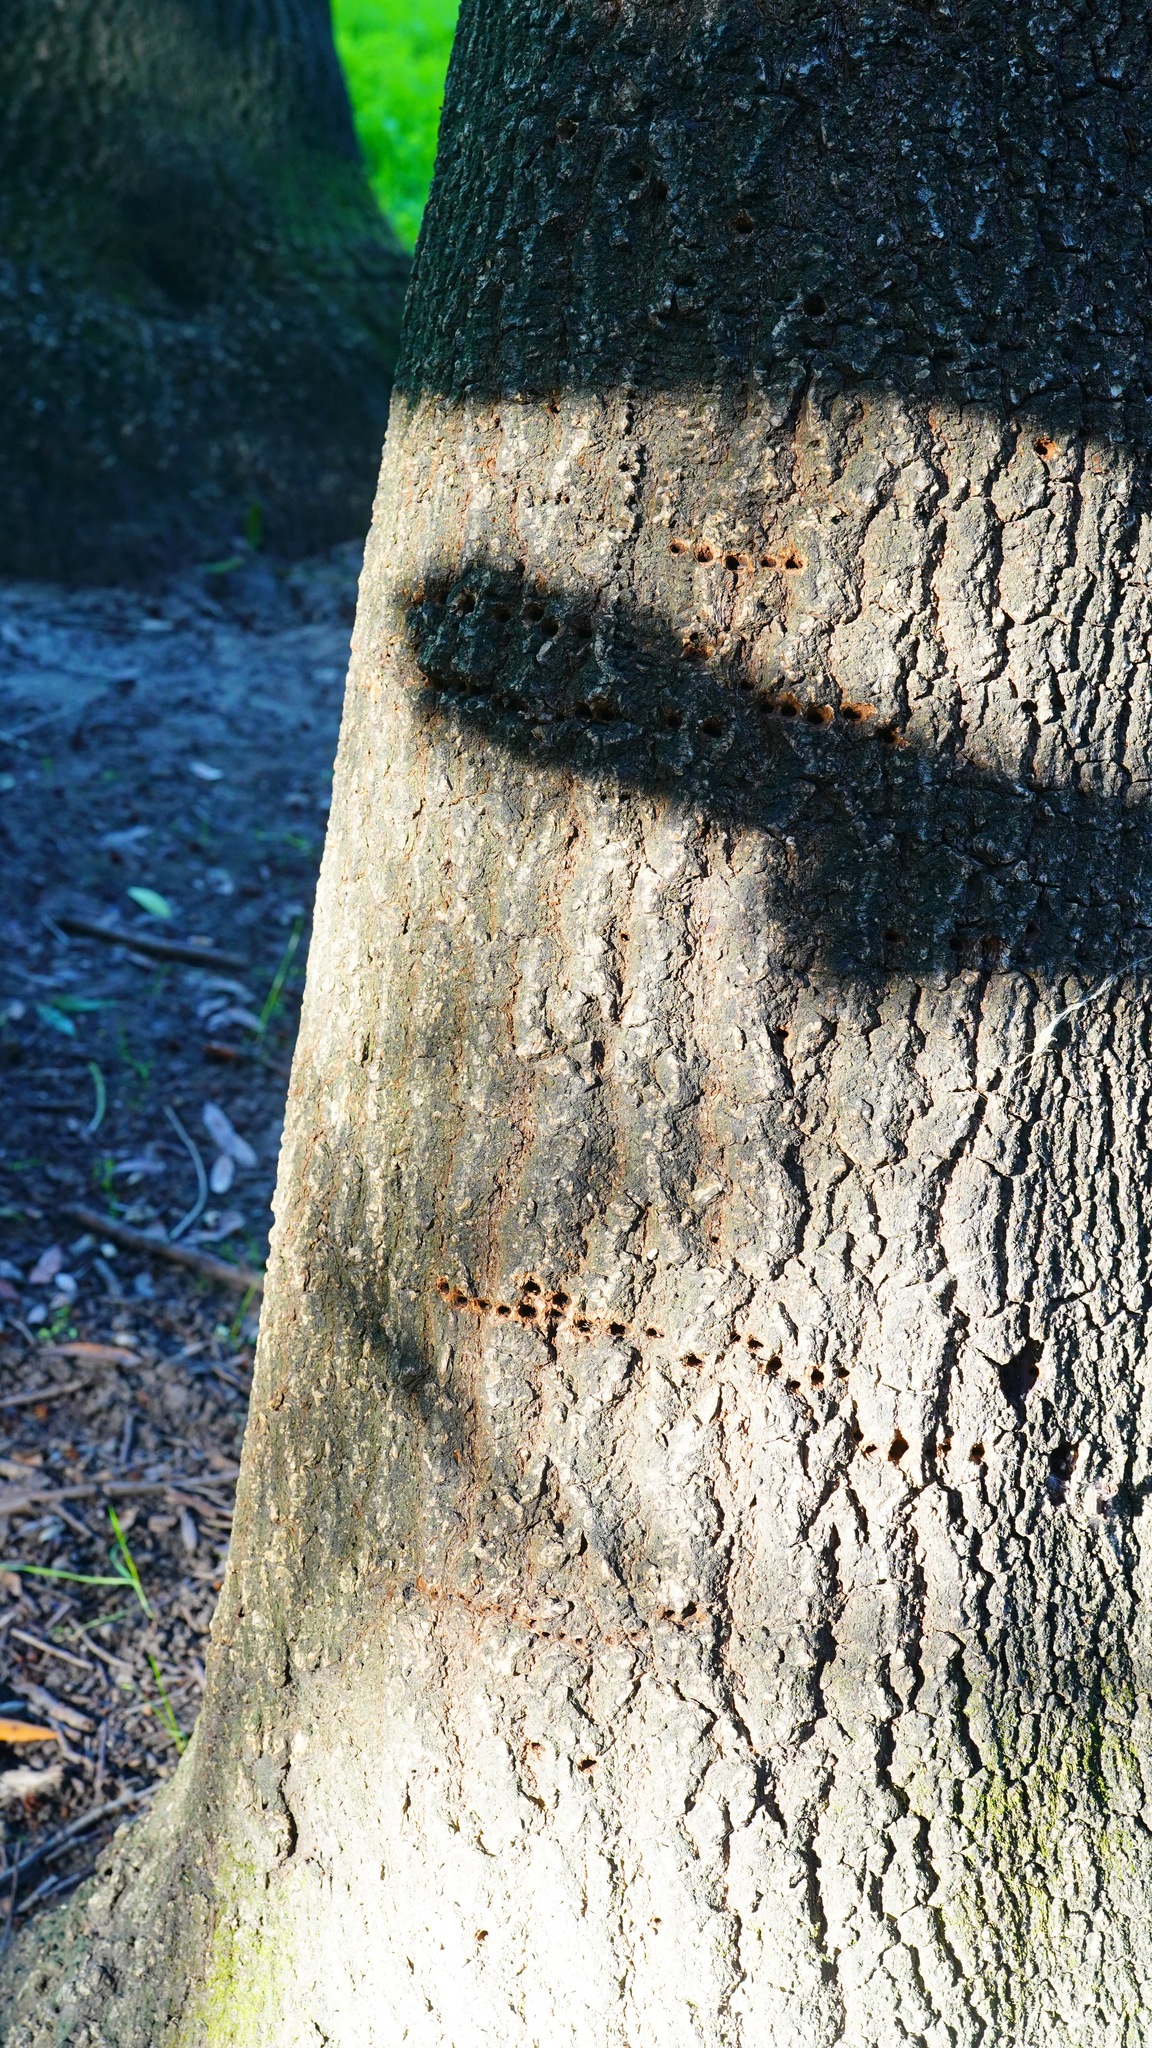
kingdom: Animalia
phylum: Chordata
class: Aves
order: Piciformes
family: Picidae
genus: Sphyrapicus
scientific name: Sphyrapicus
